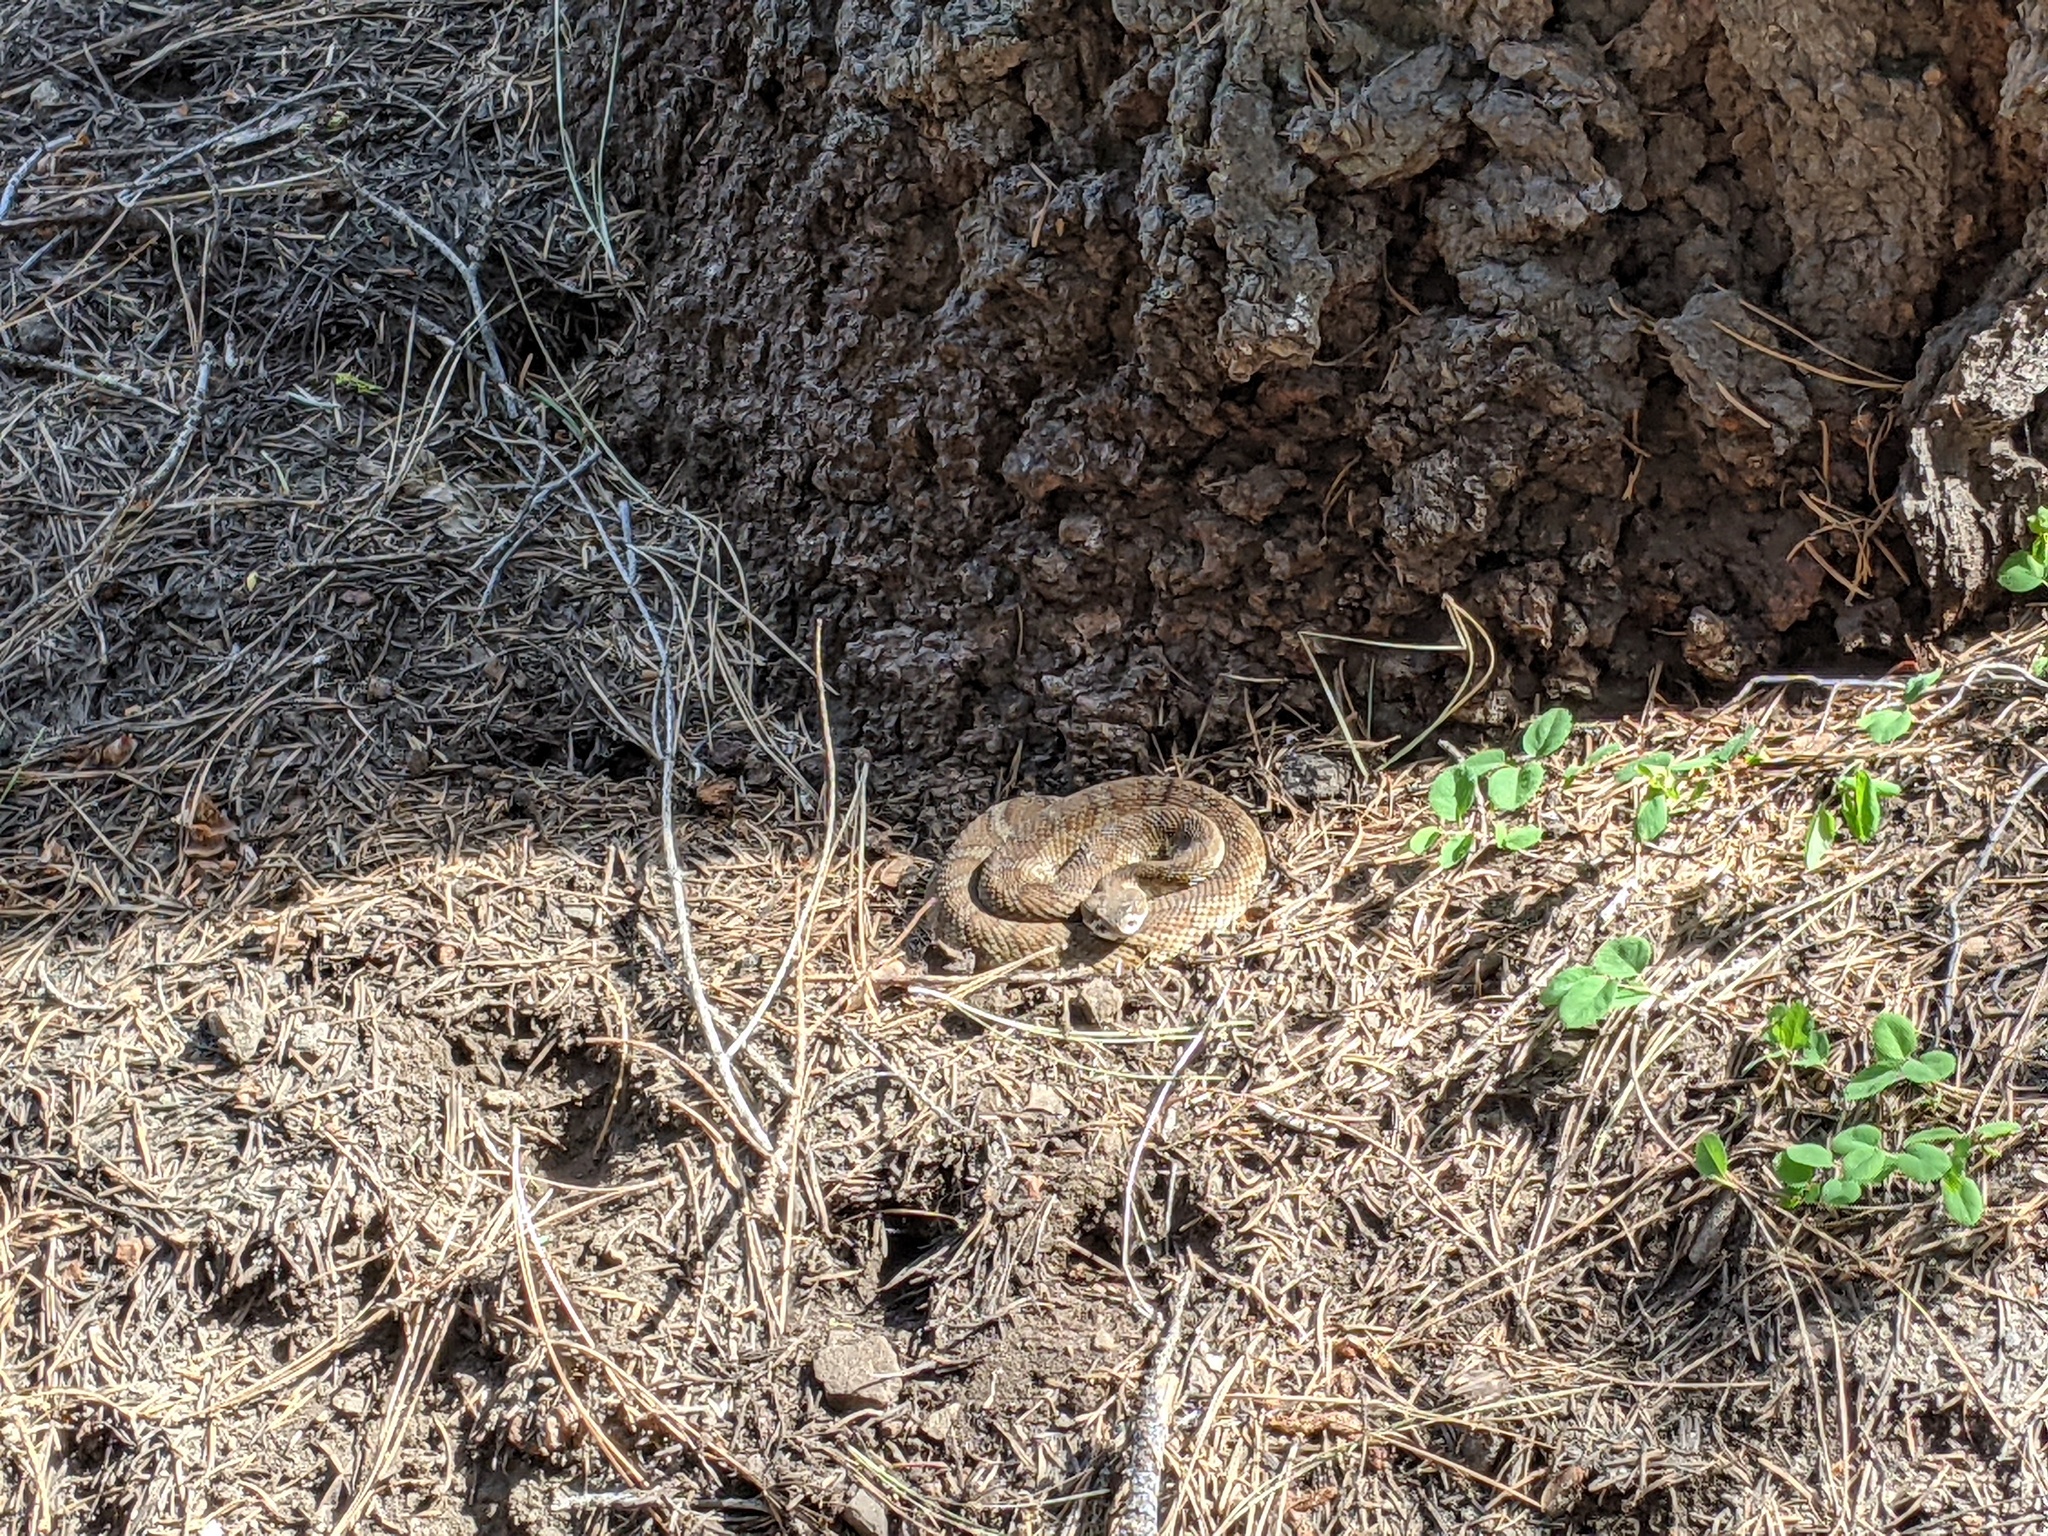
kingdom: Animalia
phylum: Chordata
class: Squamata
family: Viperidae
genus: Crotalus
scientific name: Crotalus oreganus
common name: Abyssus
